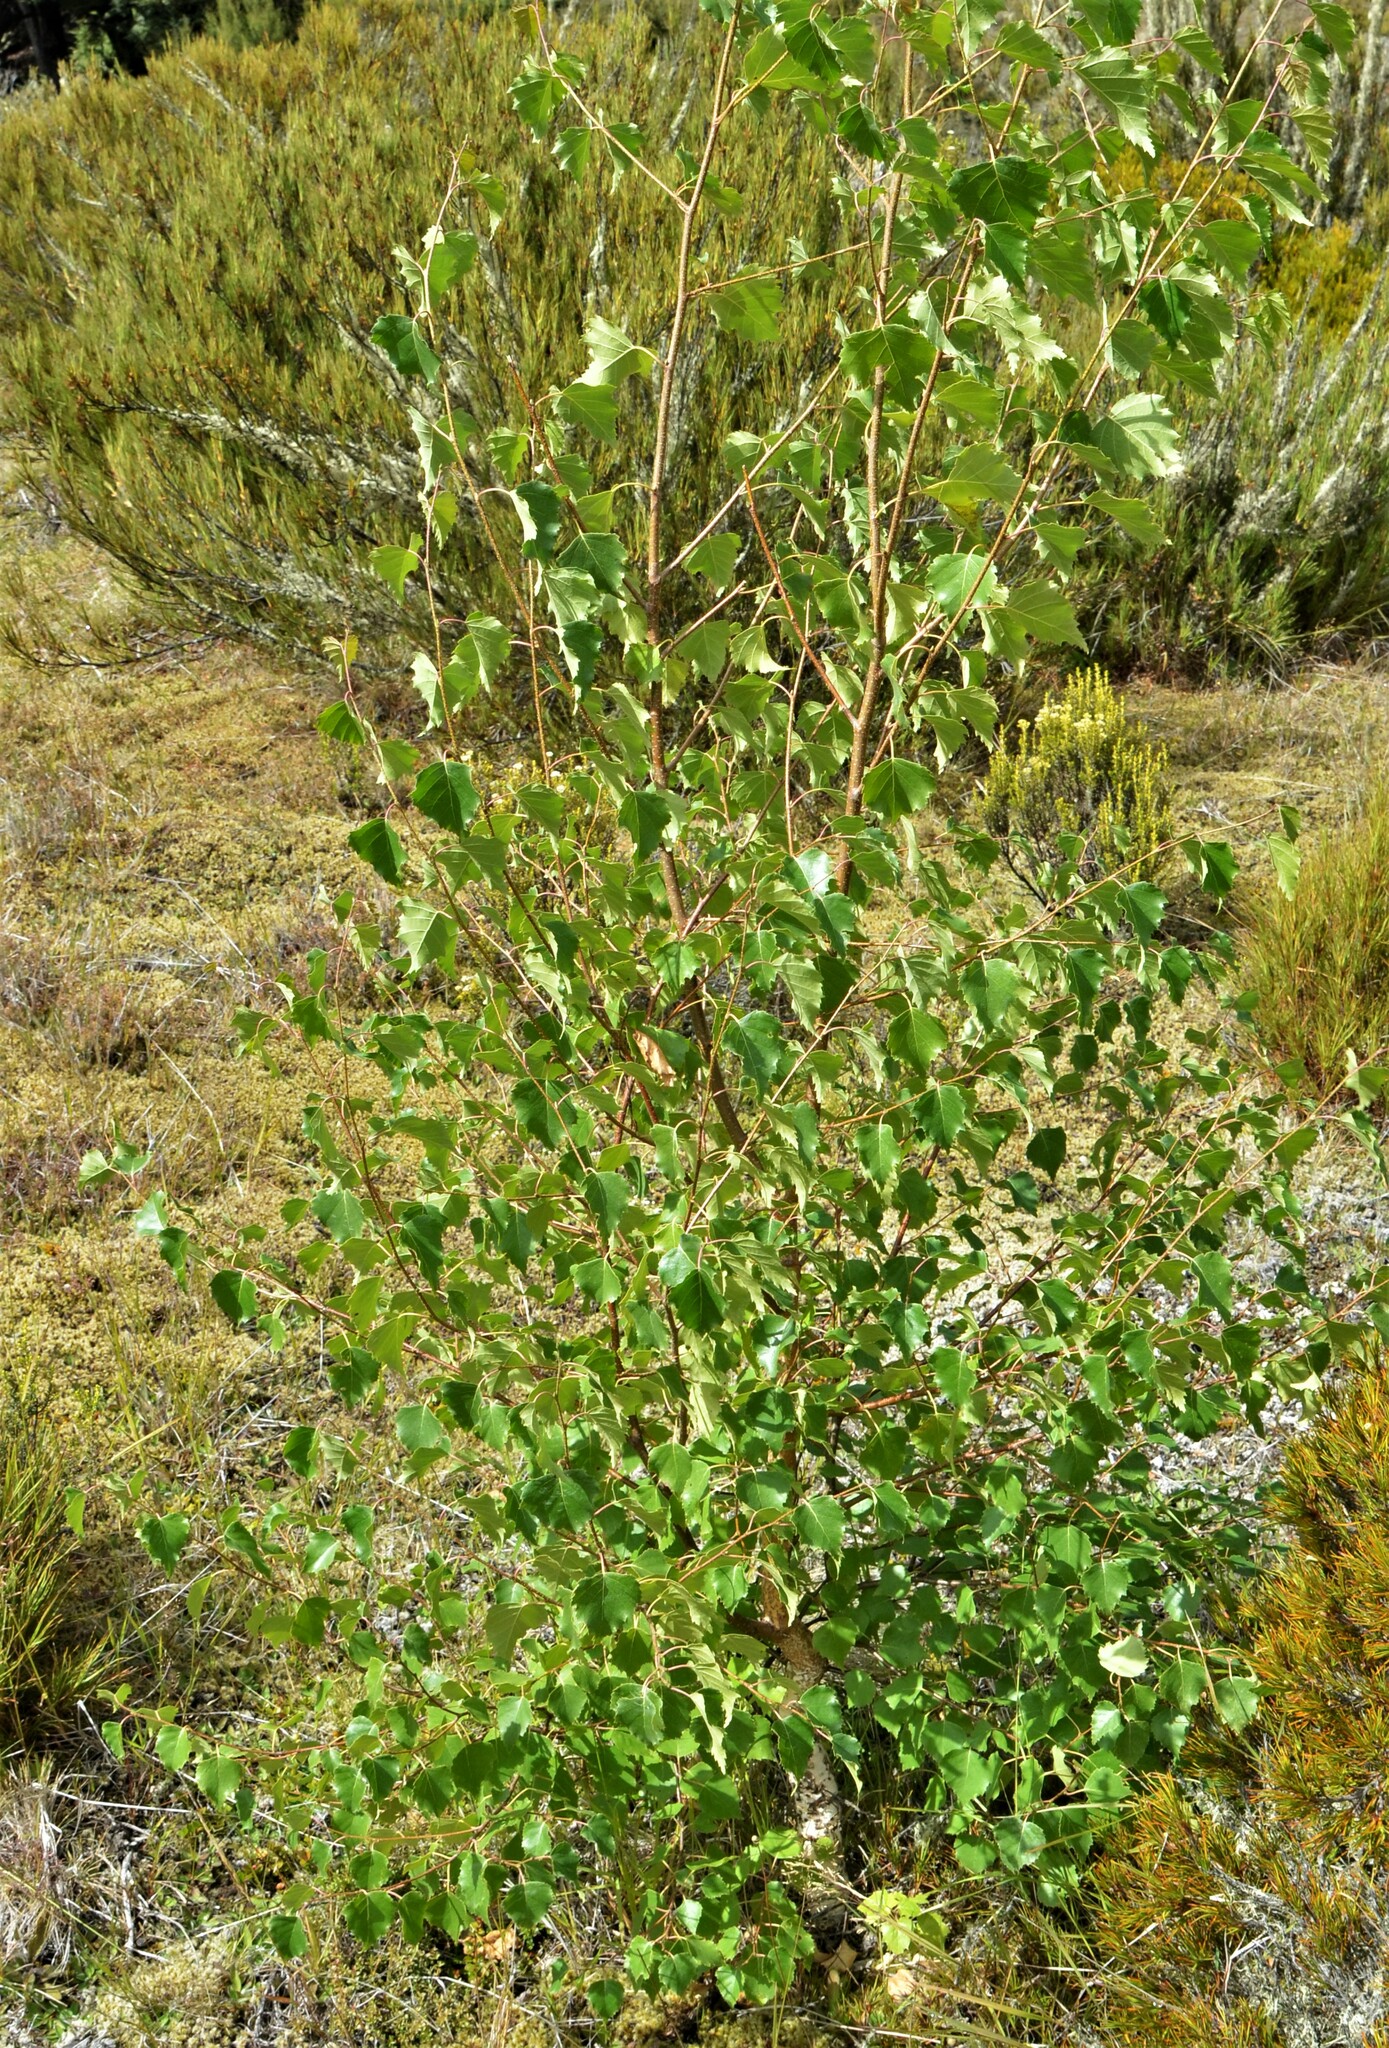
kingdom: Plantae
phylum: Tracheophyta
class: Magnoliopsida
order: Fagales
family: Betulaceae
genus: Betula
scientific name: Betula pendula
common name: Silver birch
